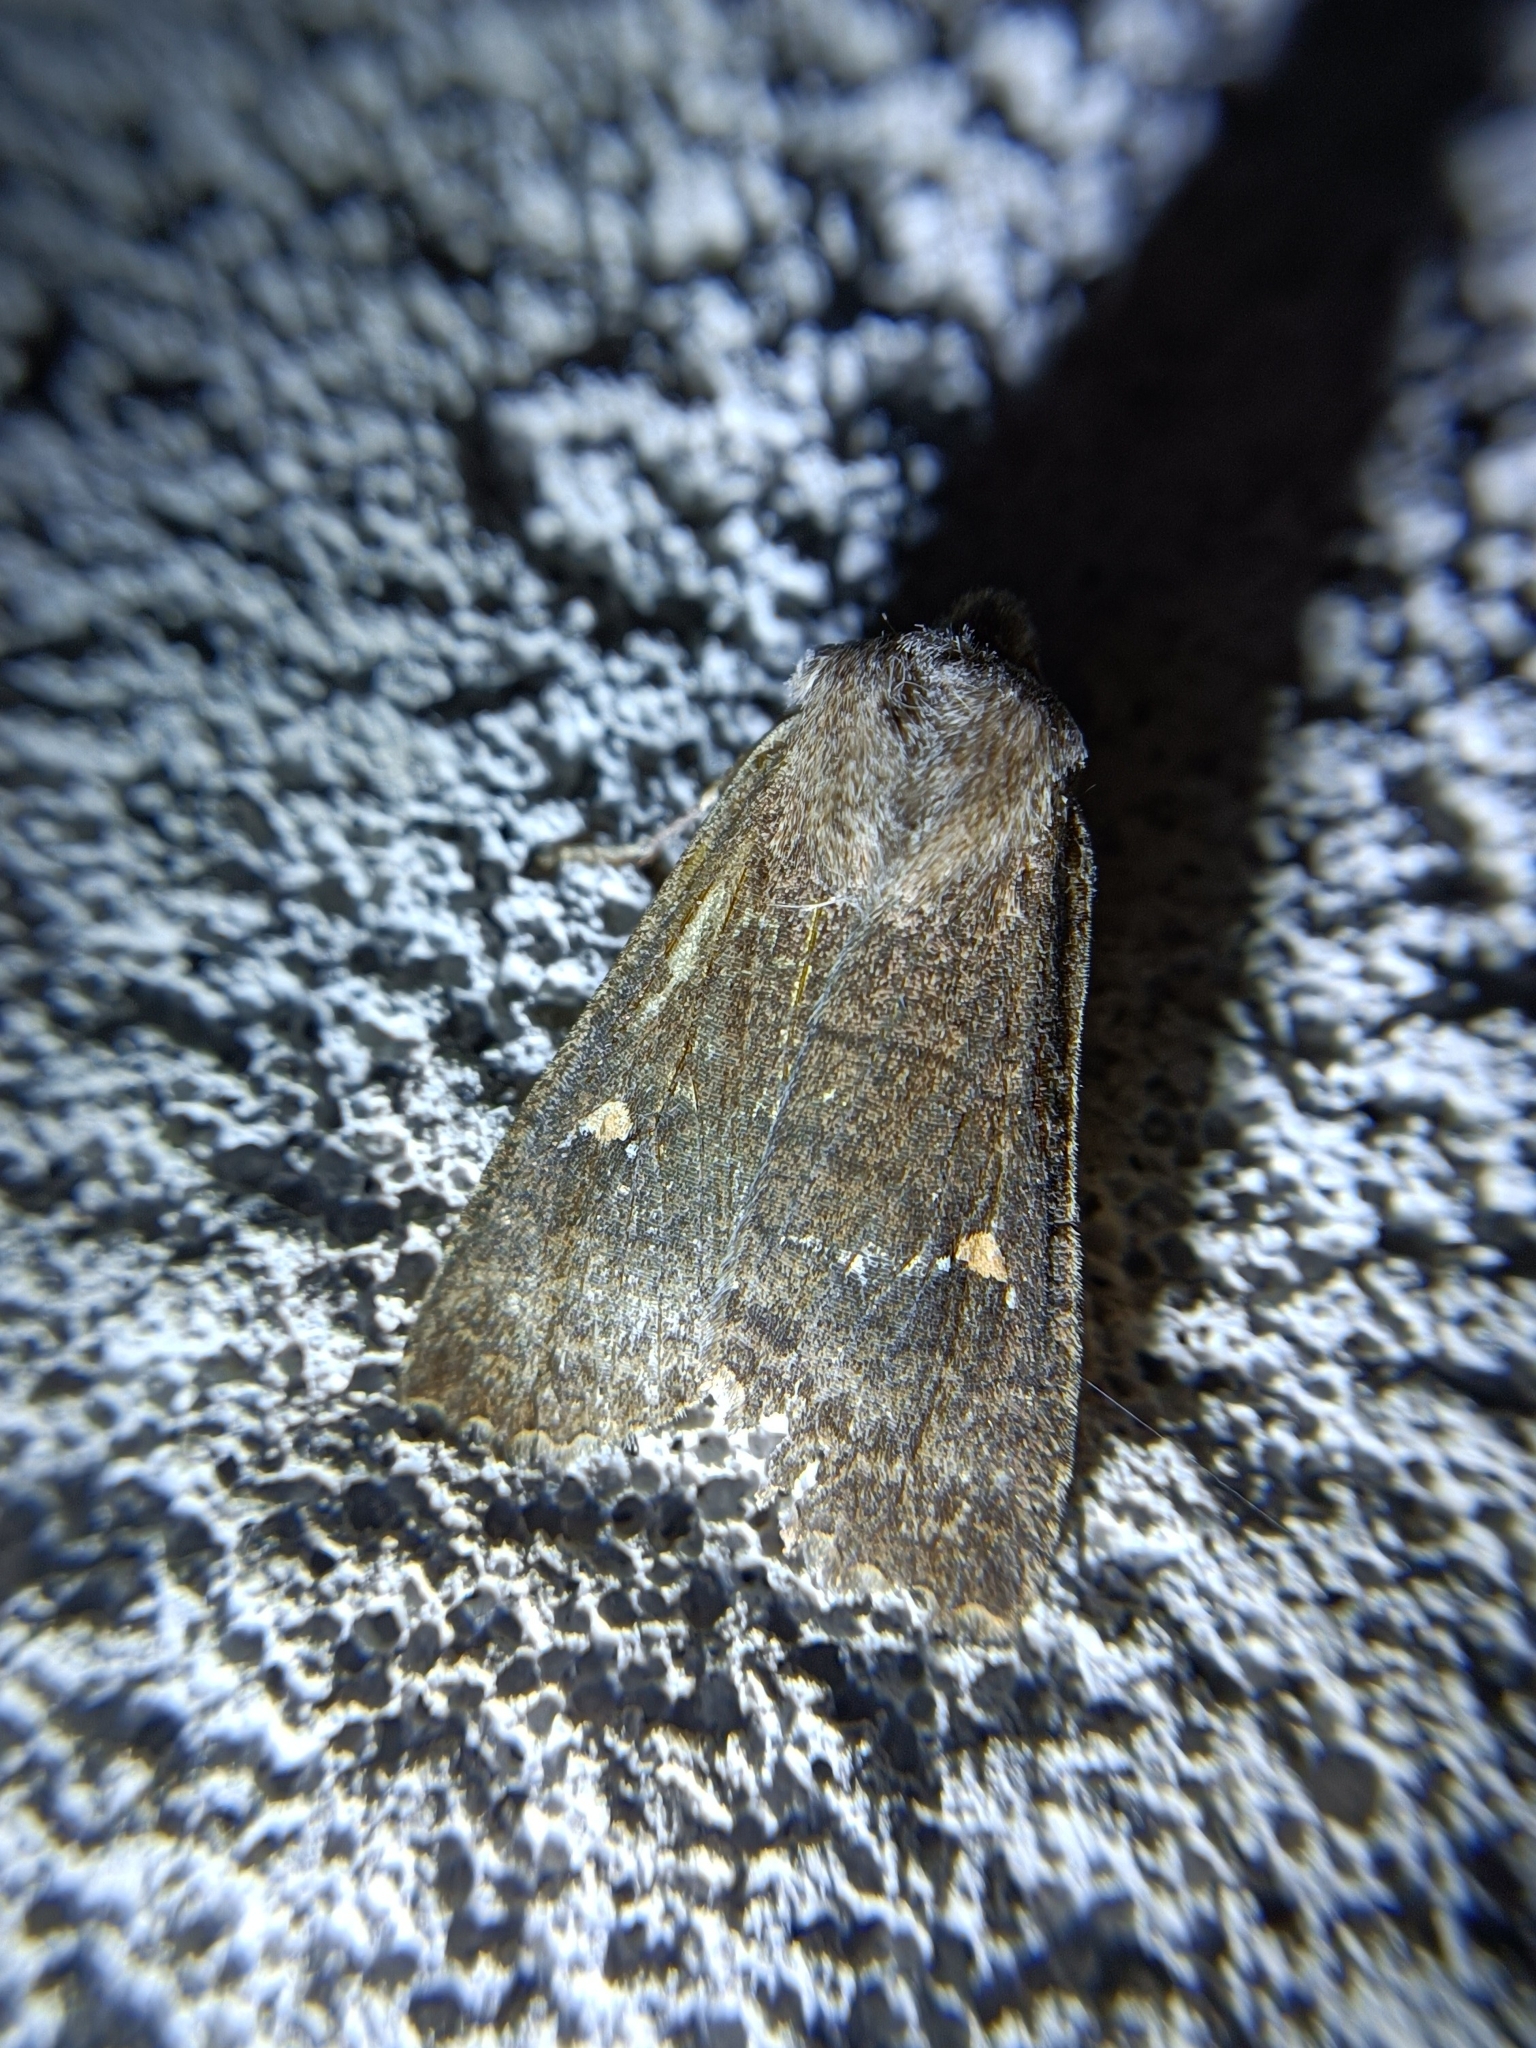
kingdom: Animalia
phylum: Arthropoda
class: Insecta
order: Lepidoptera
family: Noctuidae
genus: Eupsilia
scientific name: Eupsilia transversa
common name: Satellite
